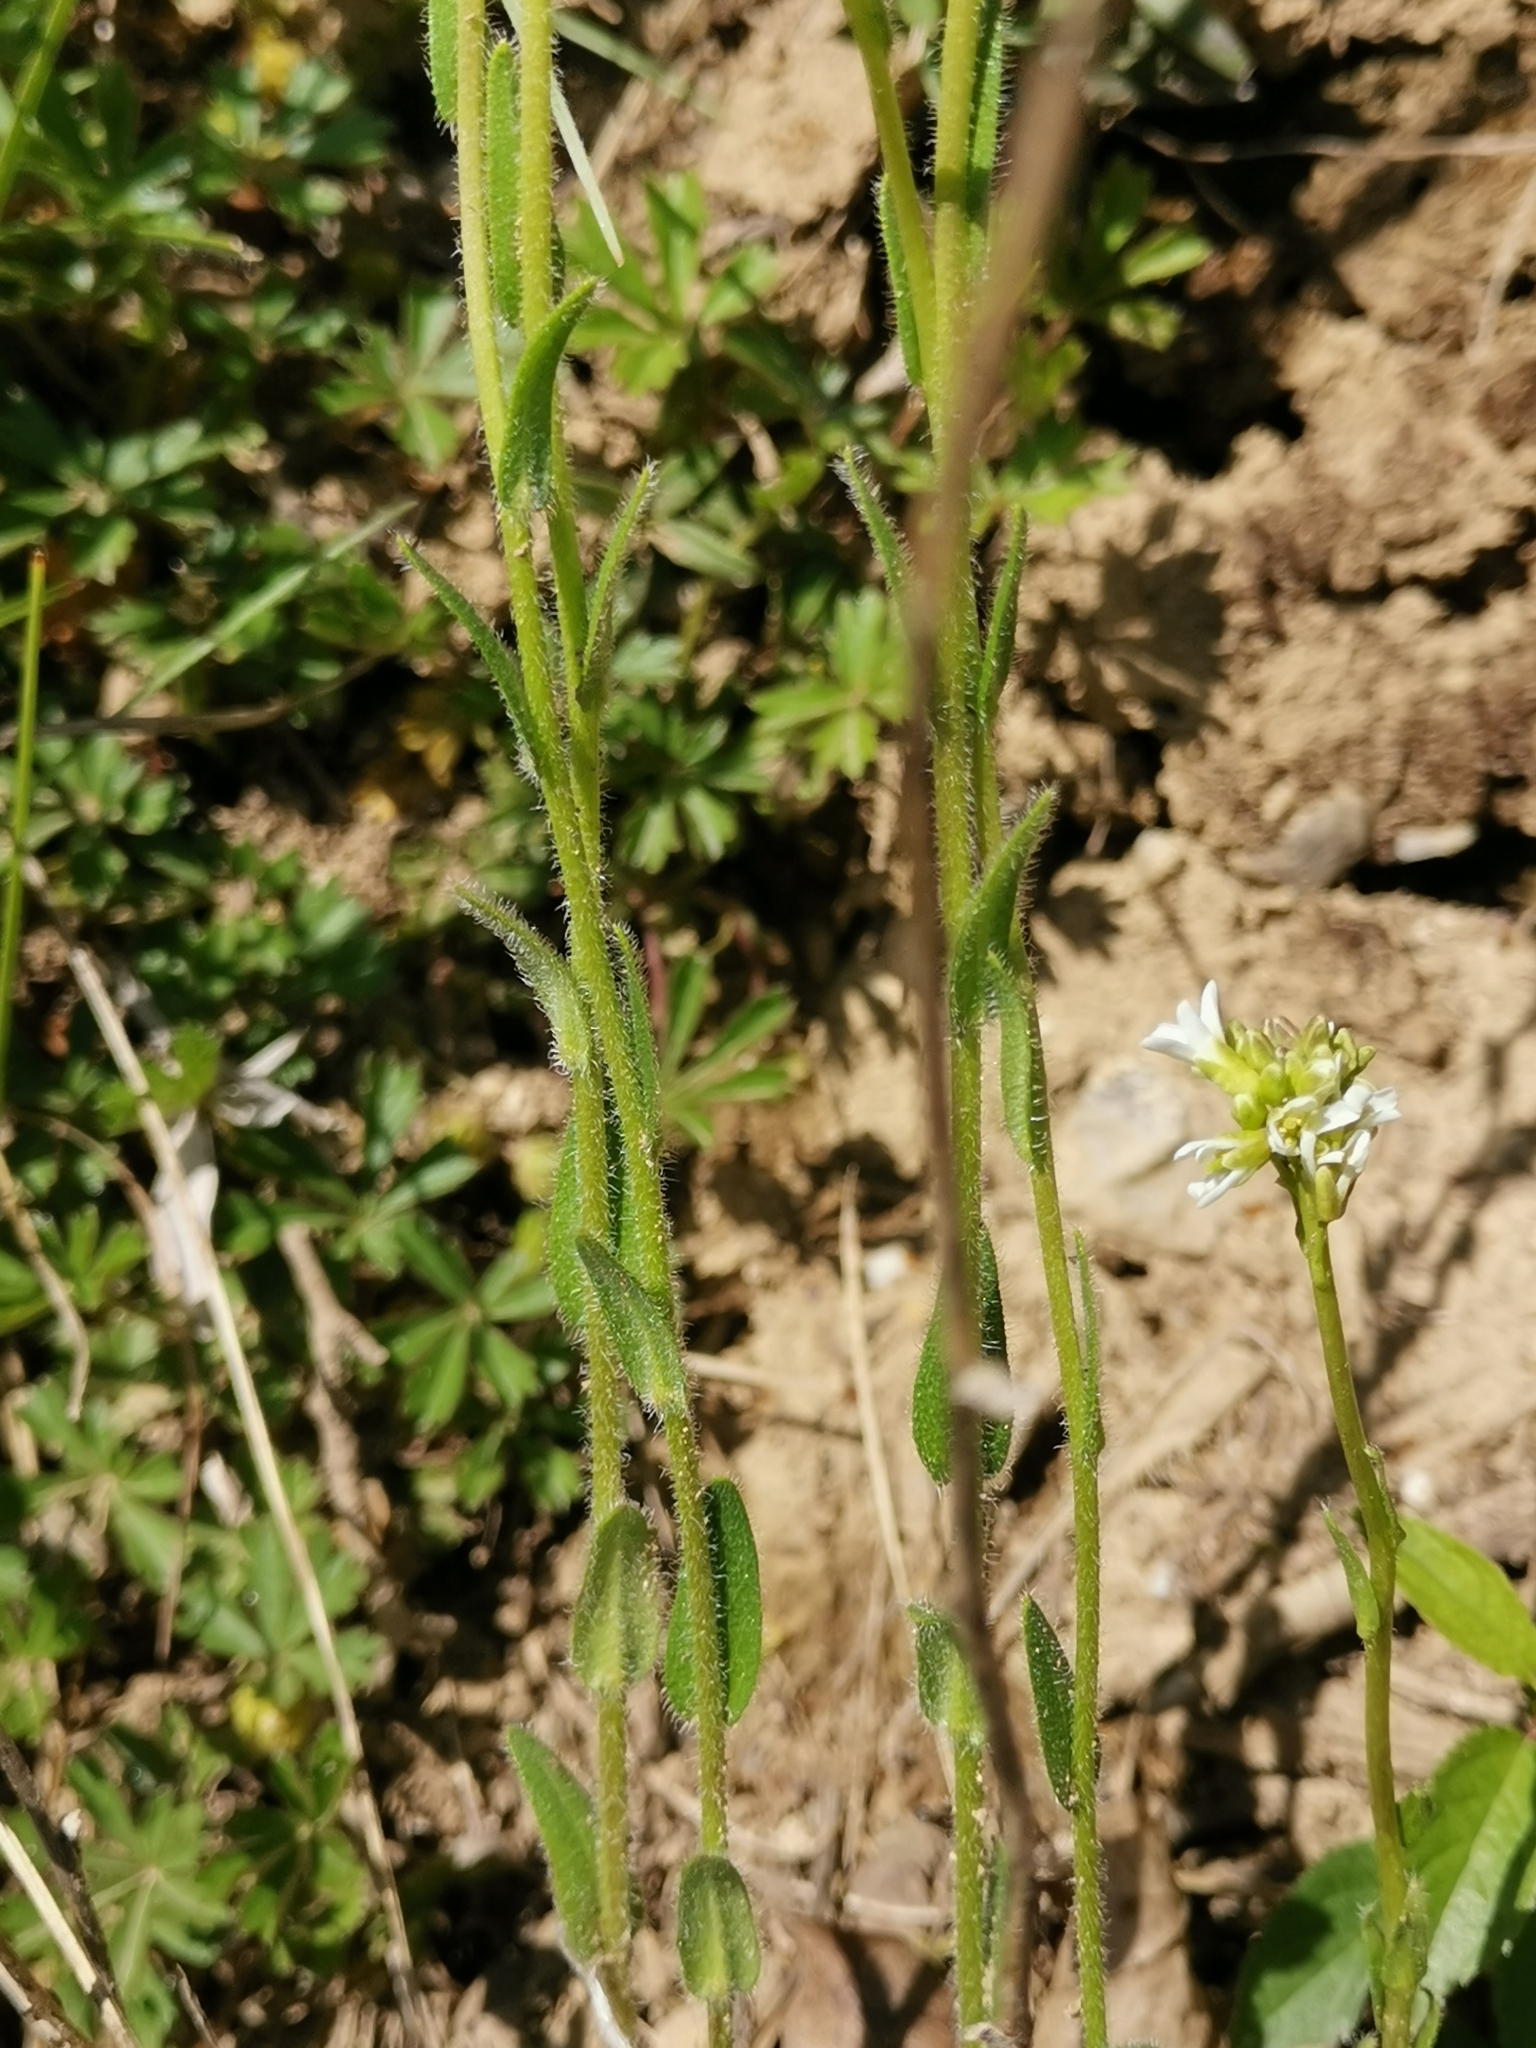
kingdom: Plantae
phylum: Tracheophyta
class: Magnoliopsida
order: Brassicales
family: Brassicaceae
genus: Arabis
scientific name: Arabis hirsuta
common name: Hairy rock-cress
